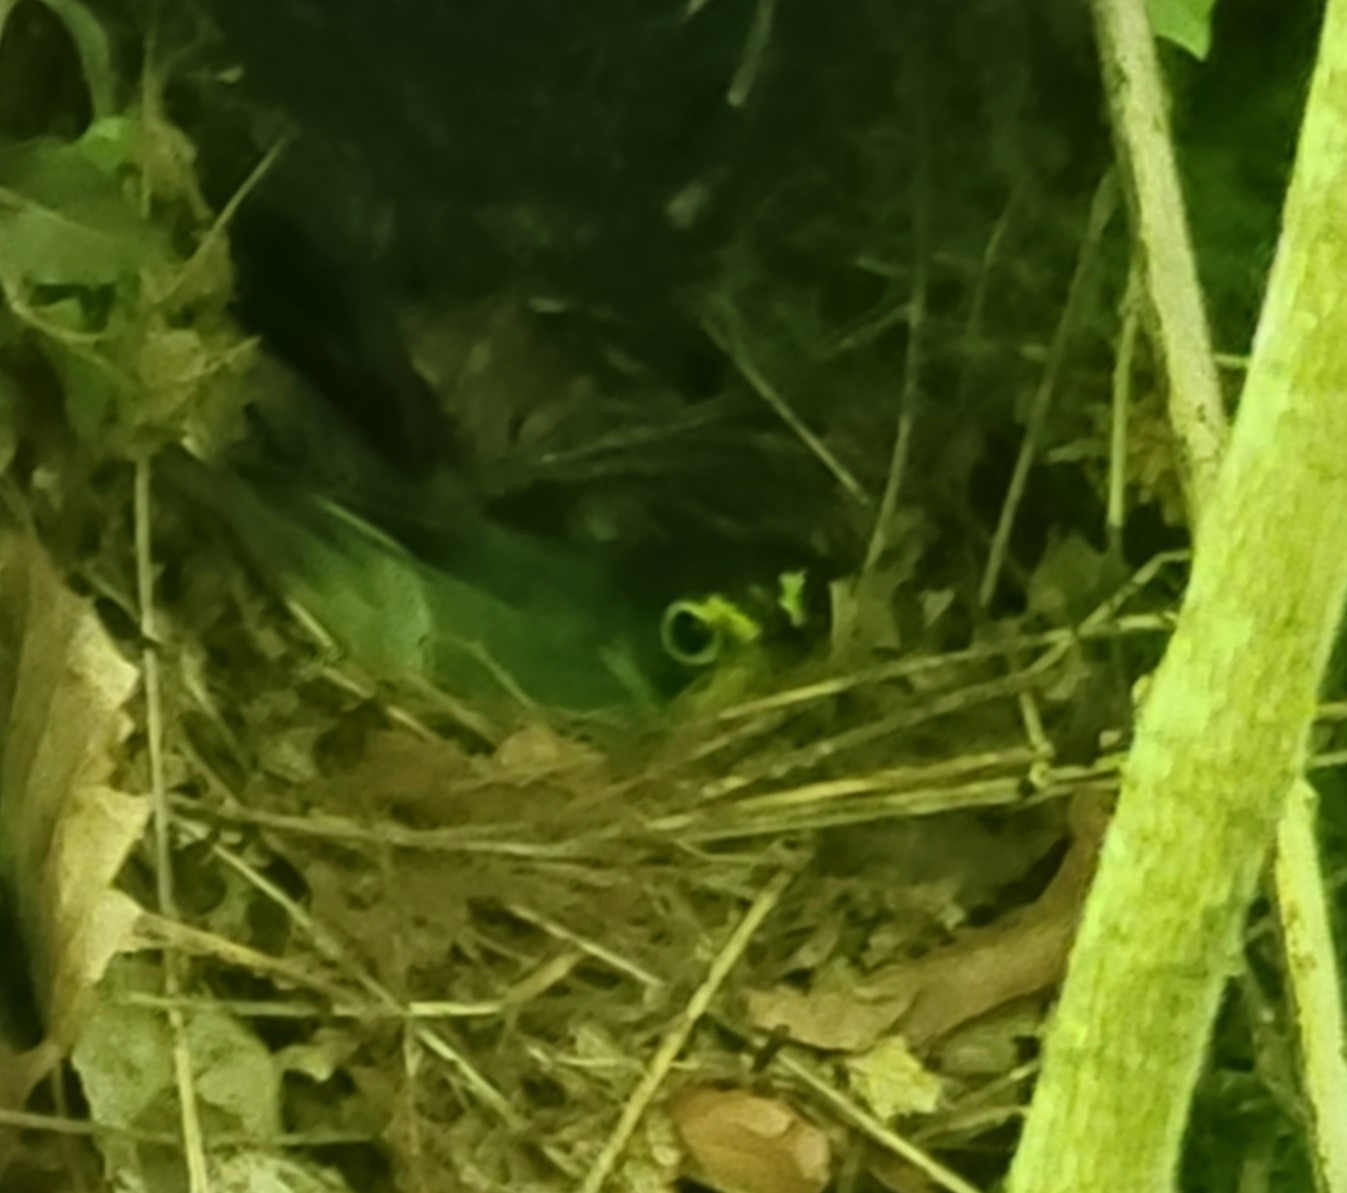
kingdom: Animalia
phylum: Chordata
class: Aves
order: Passeriformes
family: Parulidae
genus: Cardellina
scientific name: Cardellina canadensis
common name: Canada warbler
